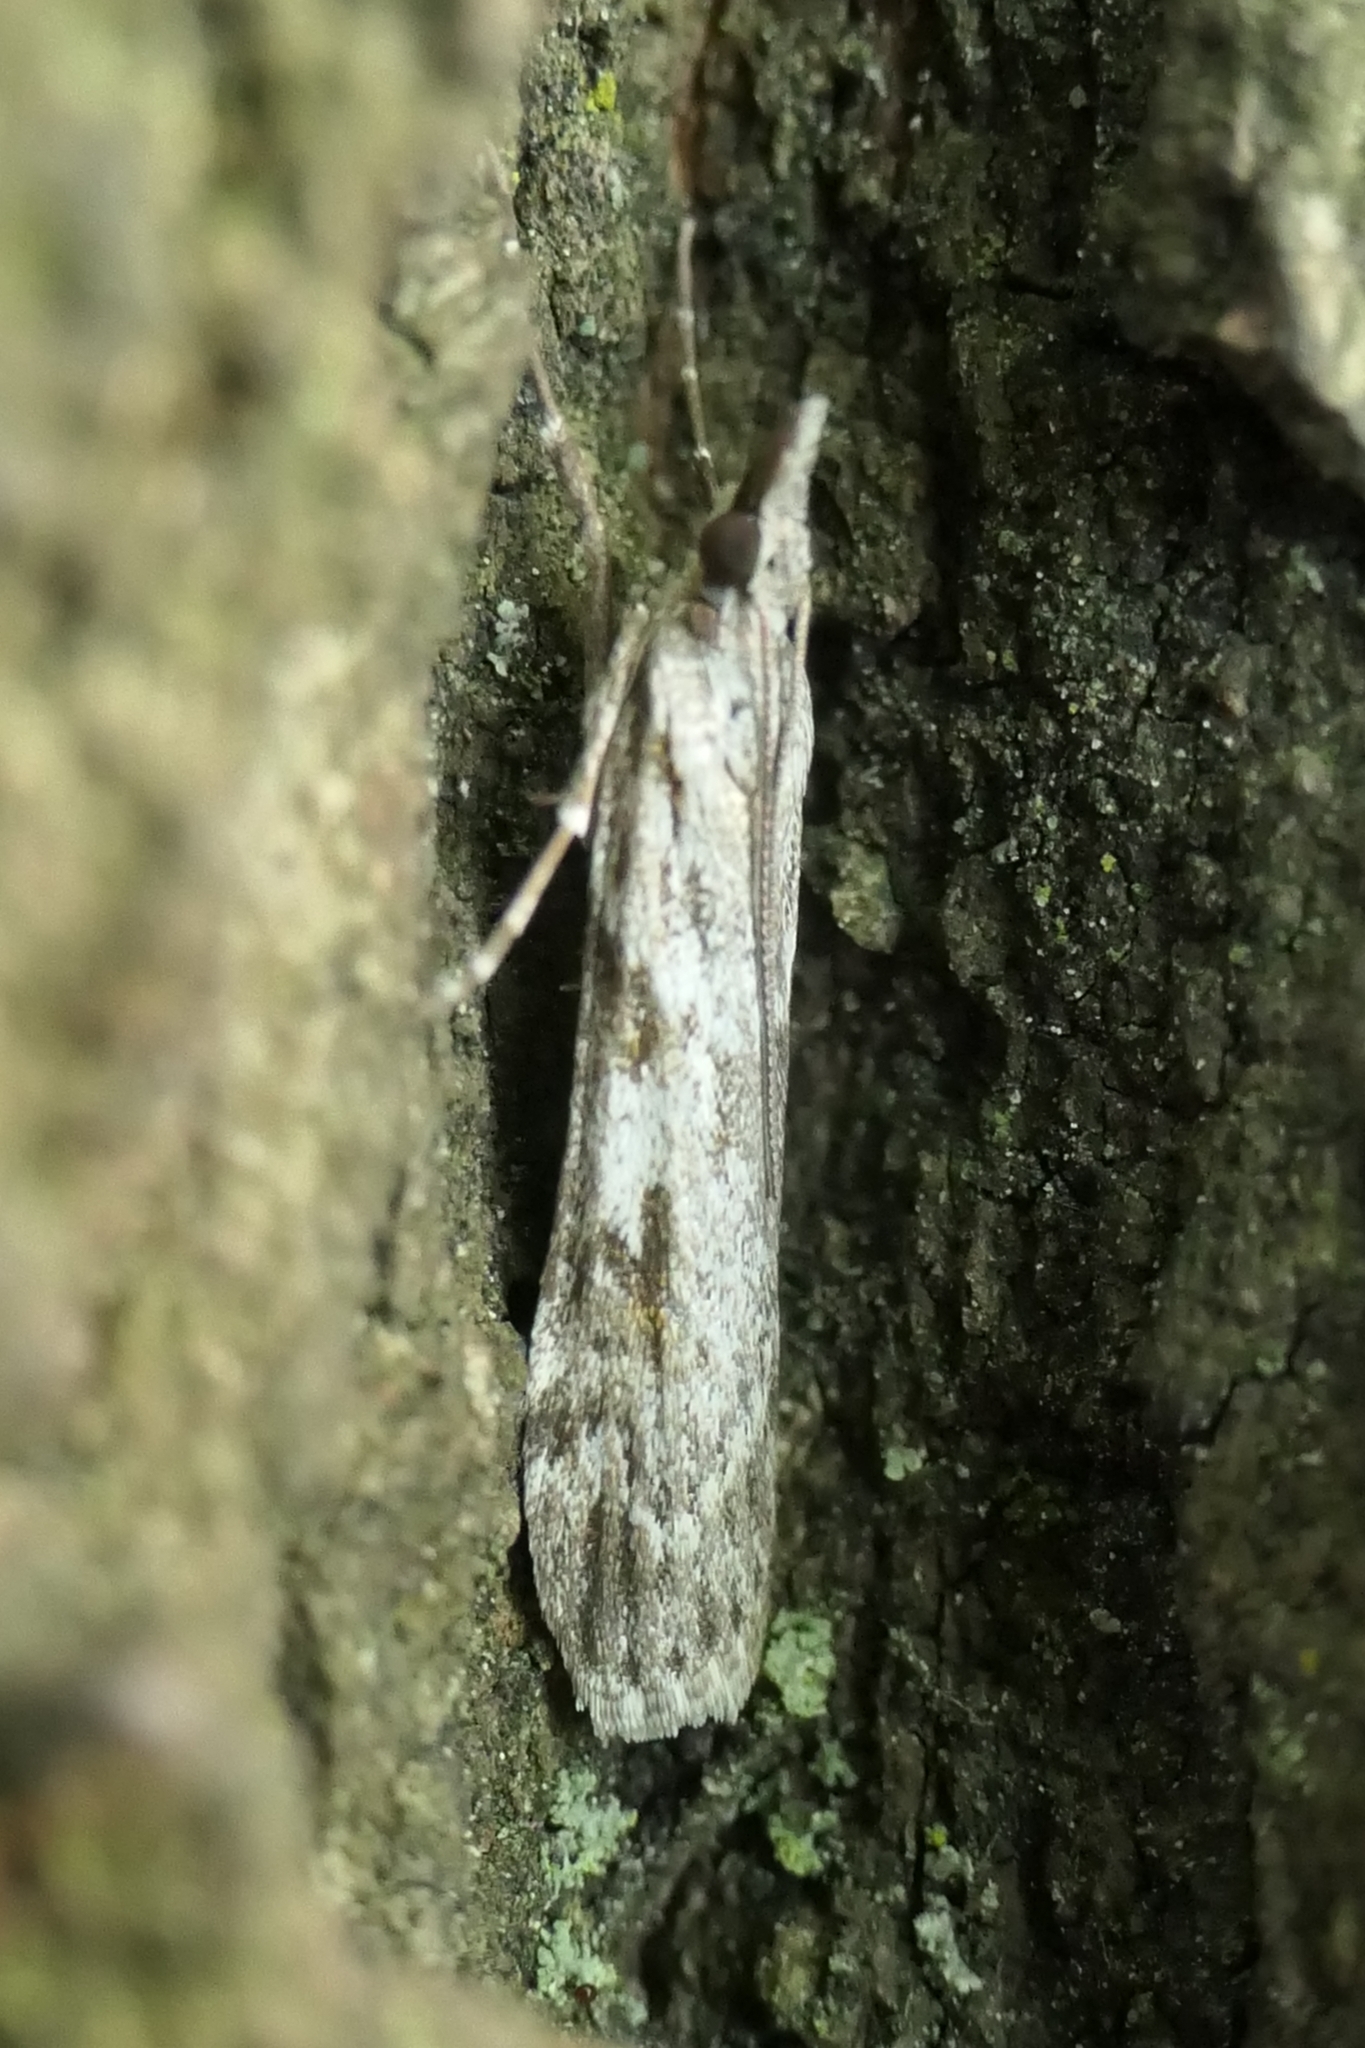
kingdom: Animalia
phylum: Arthropoda
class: Insecta
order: Lepidoptera
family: Crambidae
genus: Scoparia
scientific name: Scoparia halopis
